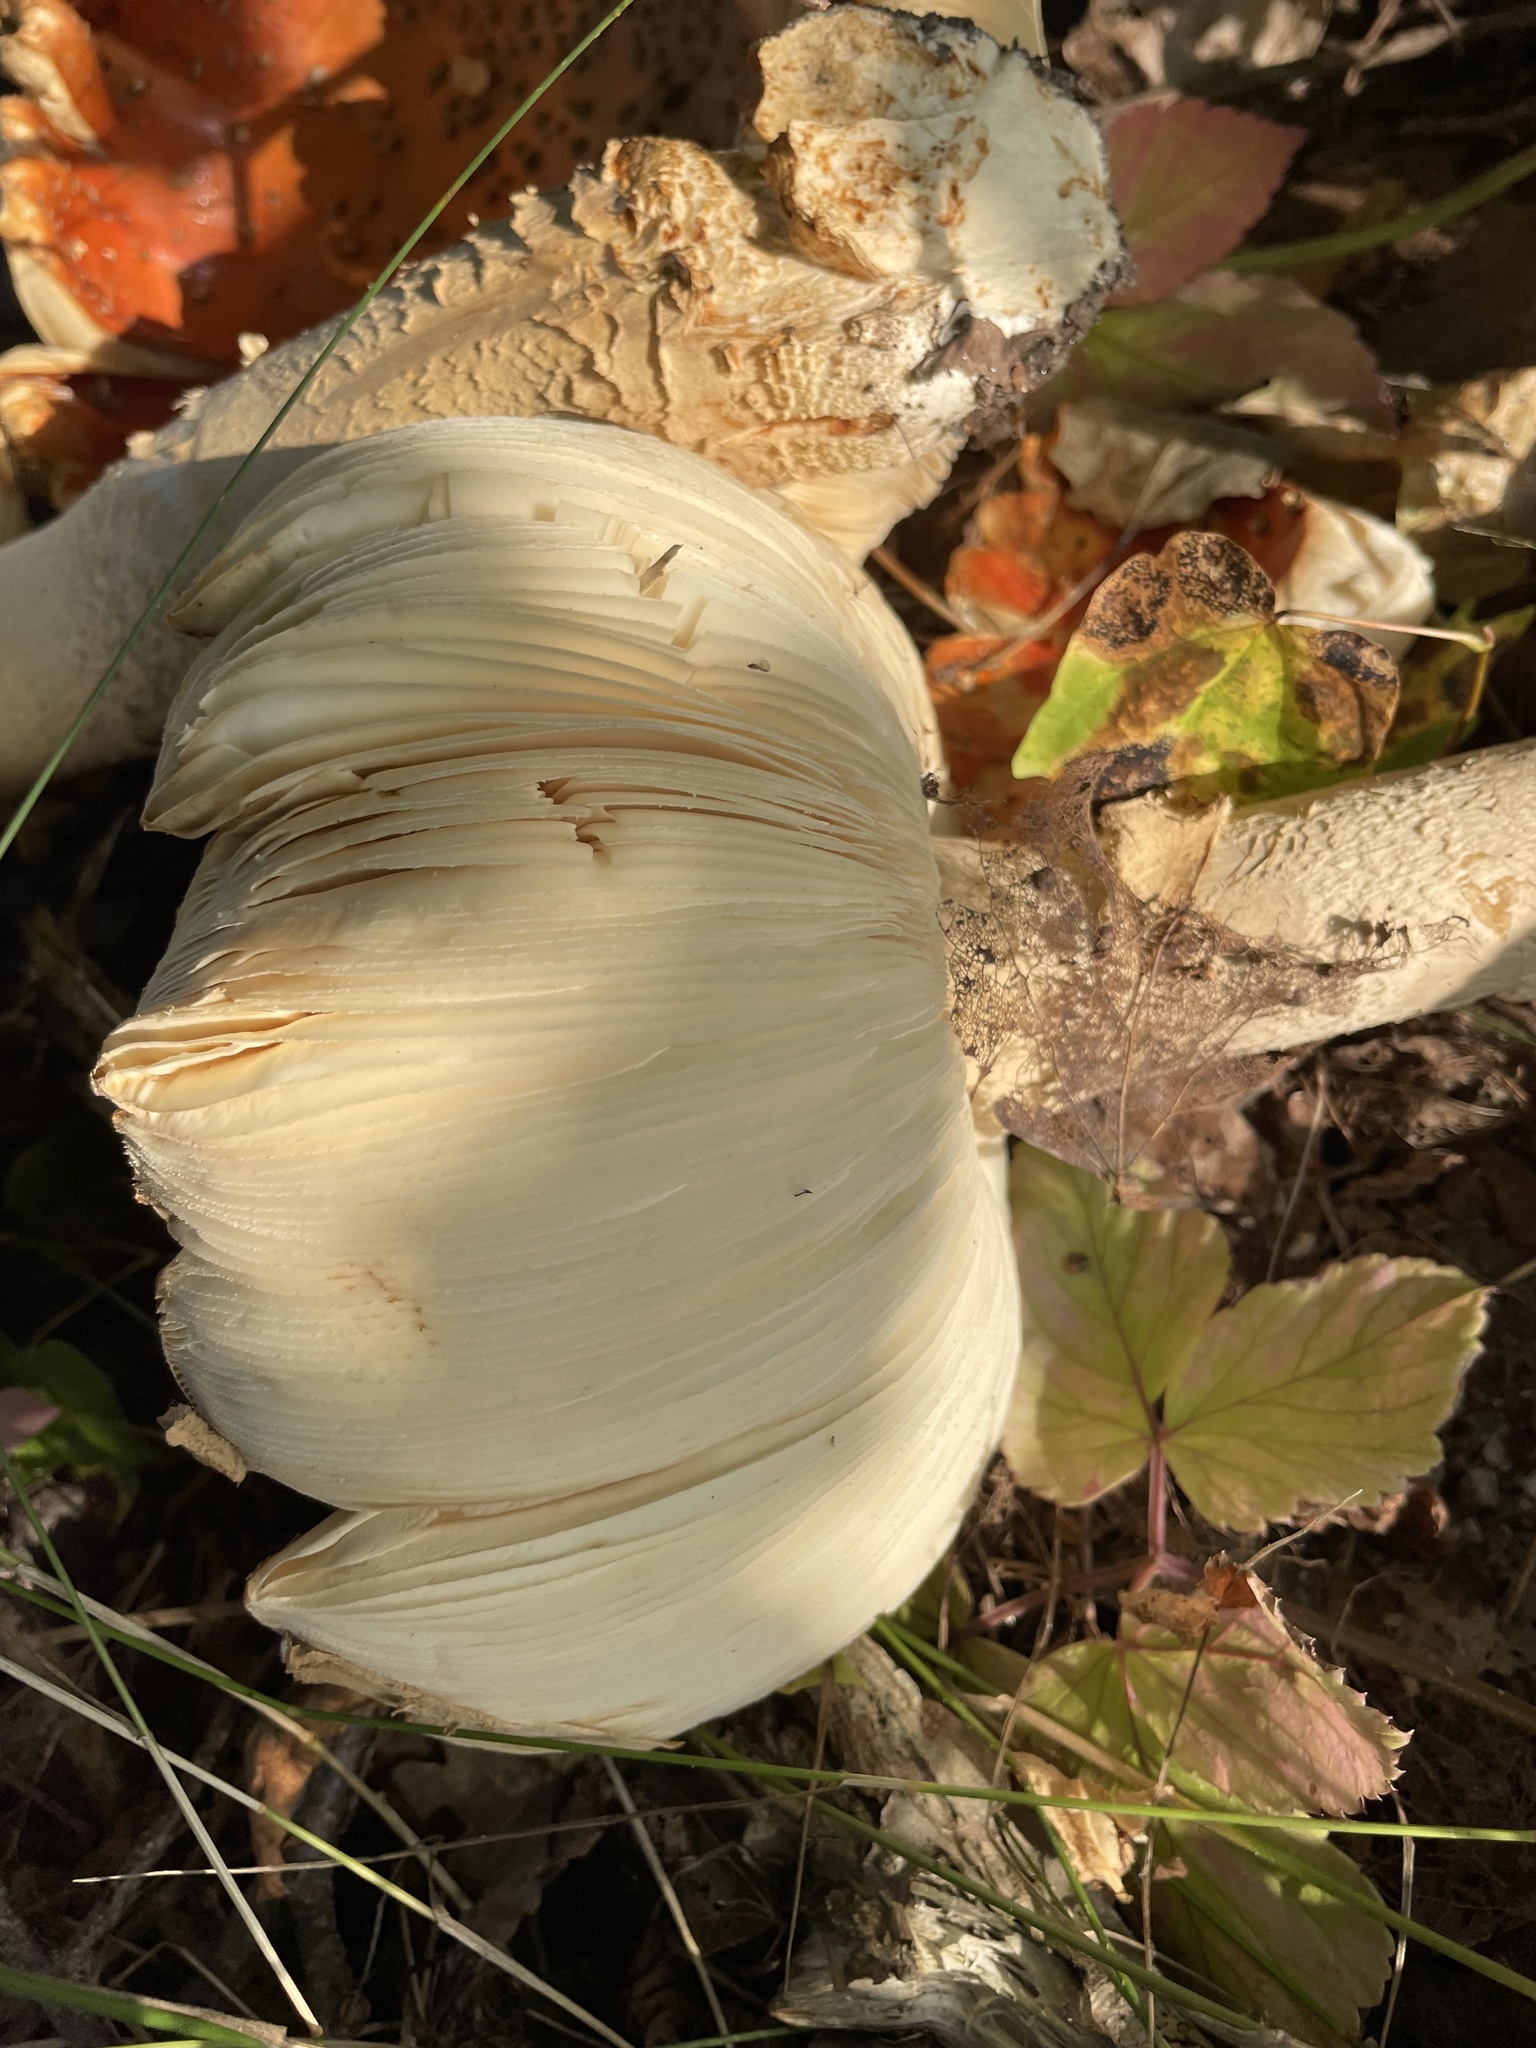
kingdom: Fungi
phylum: Basidiomycota
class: Agaricomycetes
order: Agaricales
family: Amanitaceae
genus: Amanita
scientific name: Amanita muscaria
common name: Fly agaric
